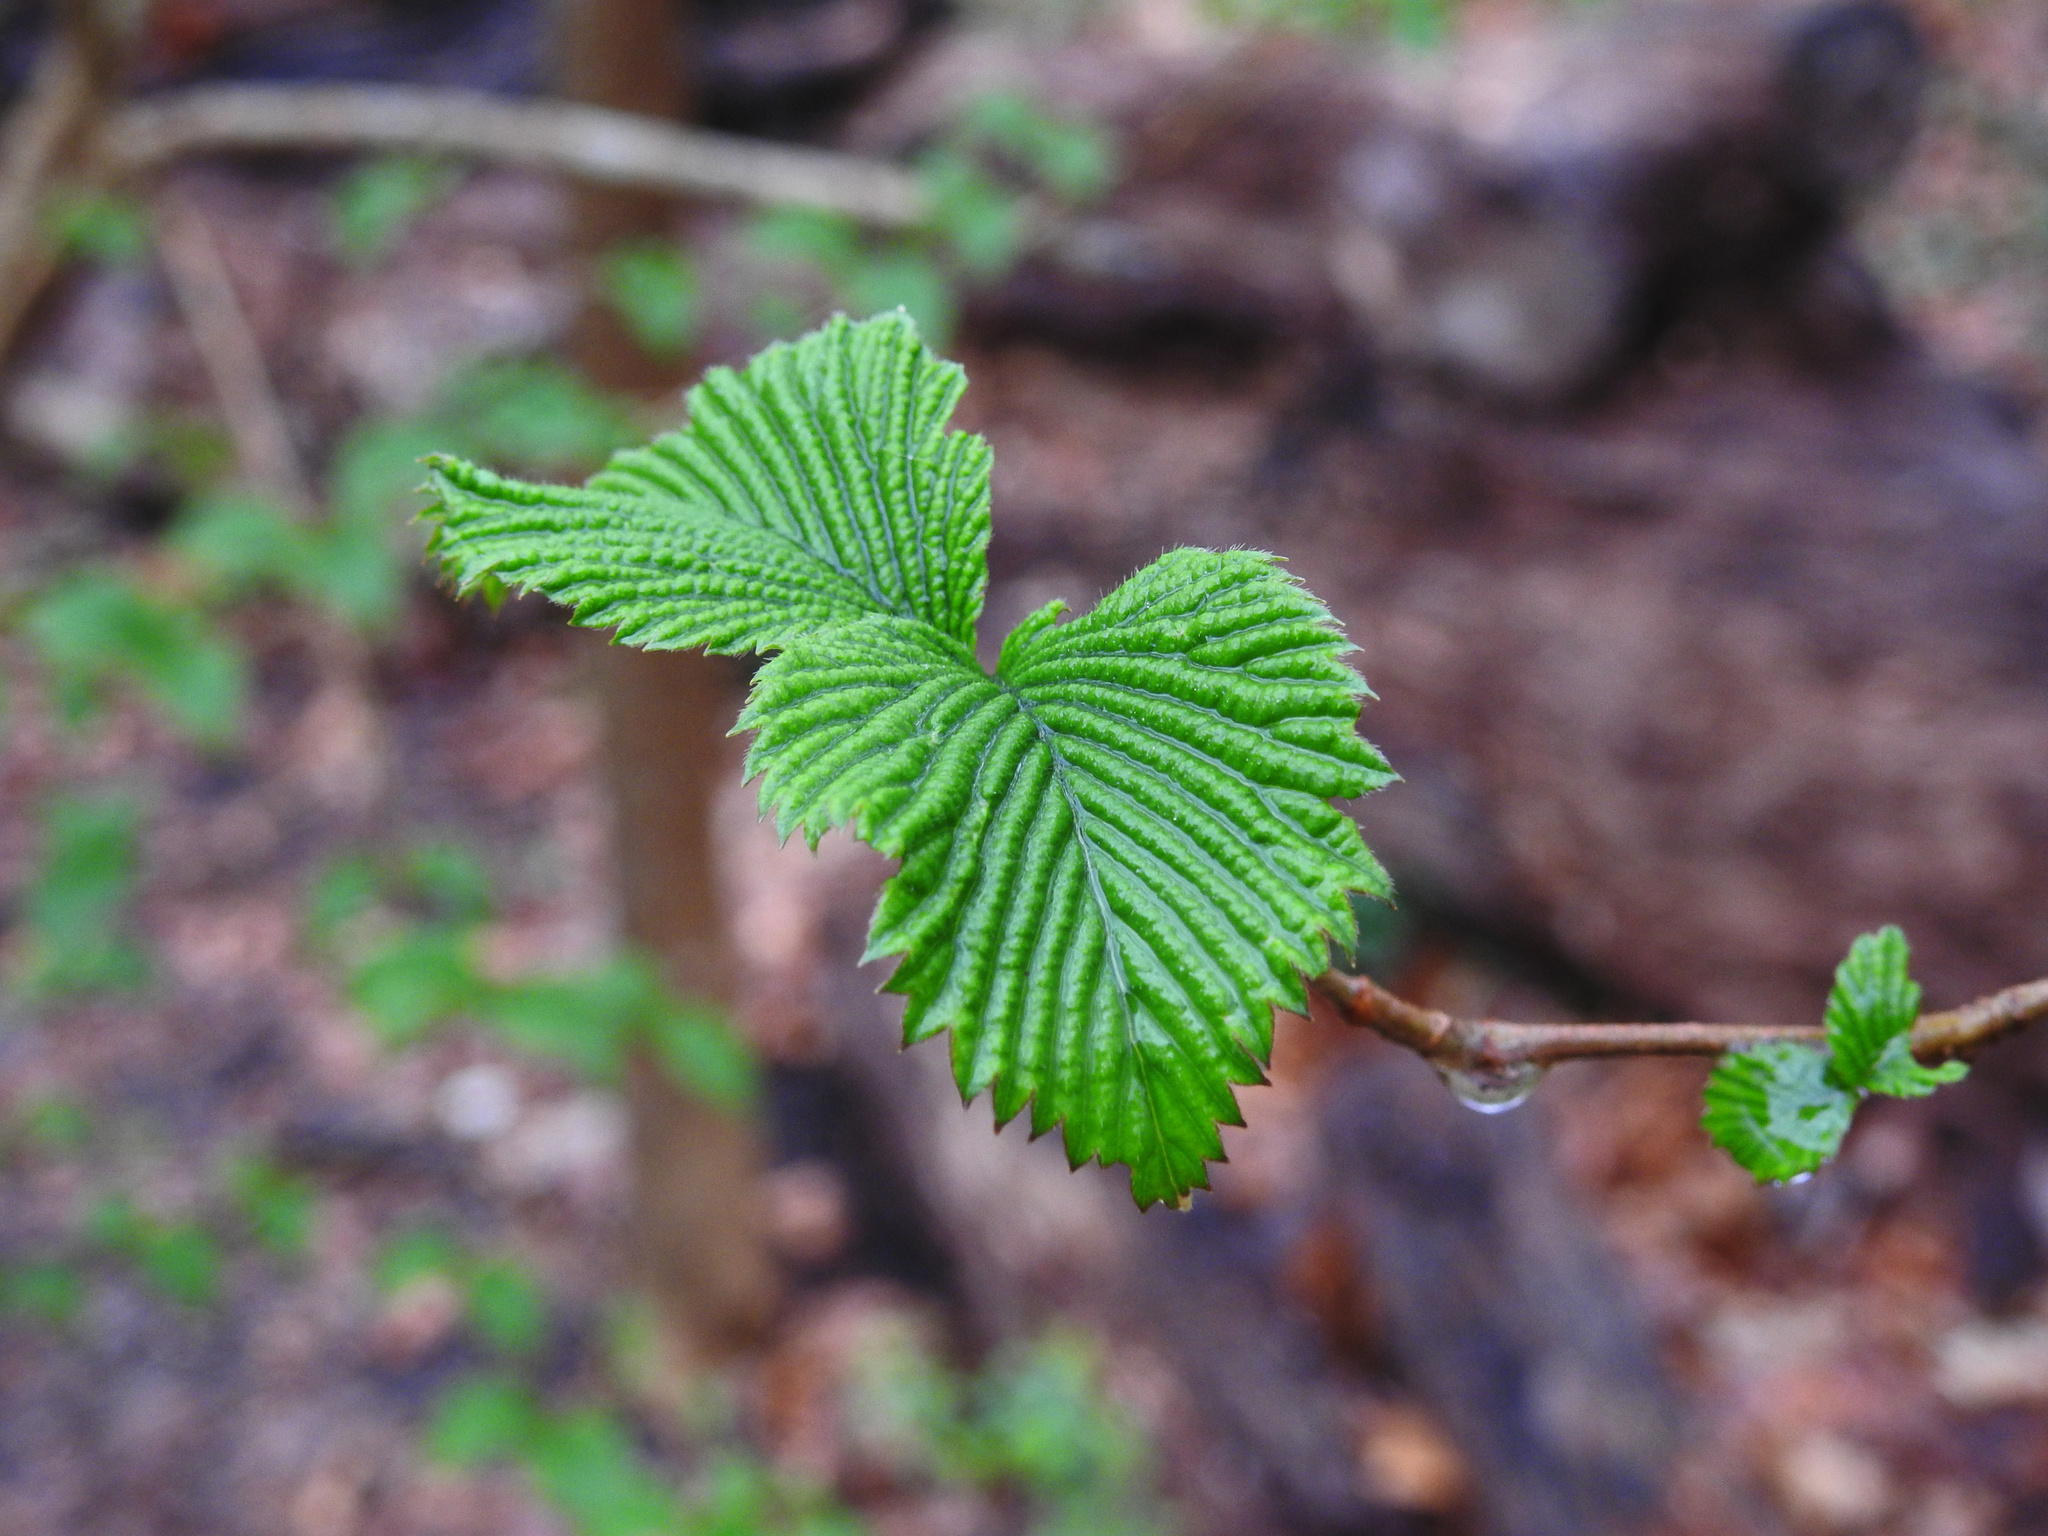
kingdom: Plantae
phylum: Tracheophyta
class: Magnoliopsida
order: Rosales
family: Rosaceae
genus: Rhodotypos
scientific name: Rhodotypos scandens
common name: Jetbead
